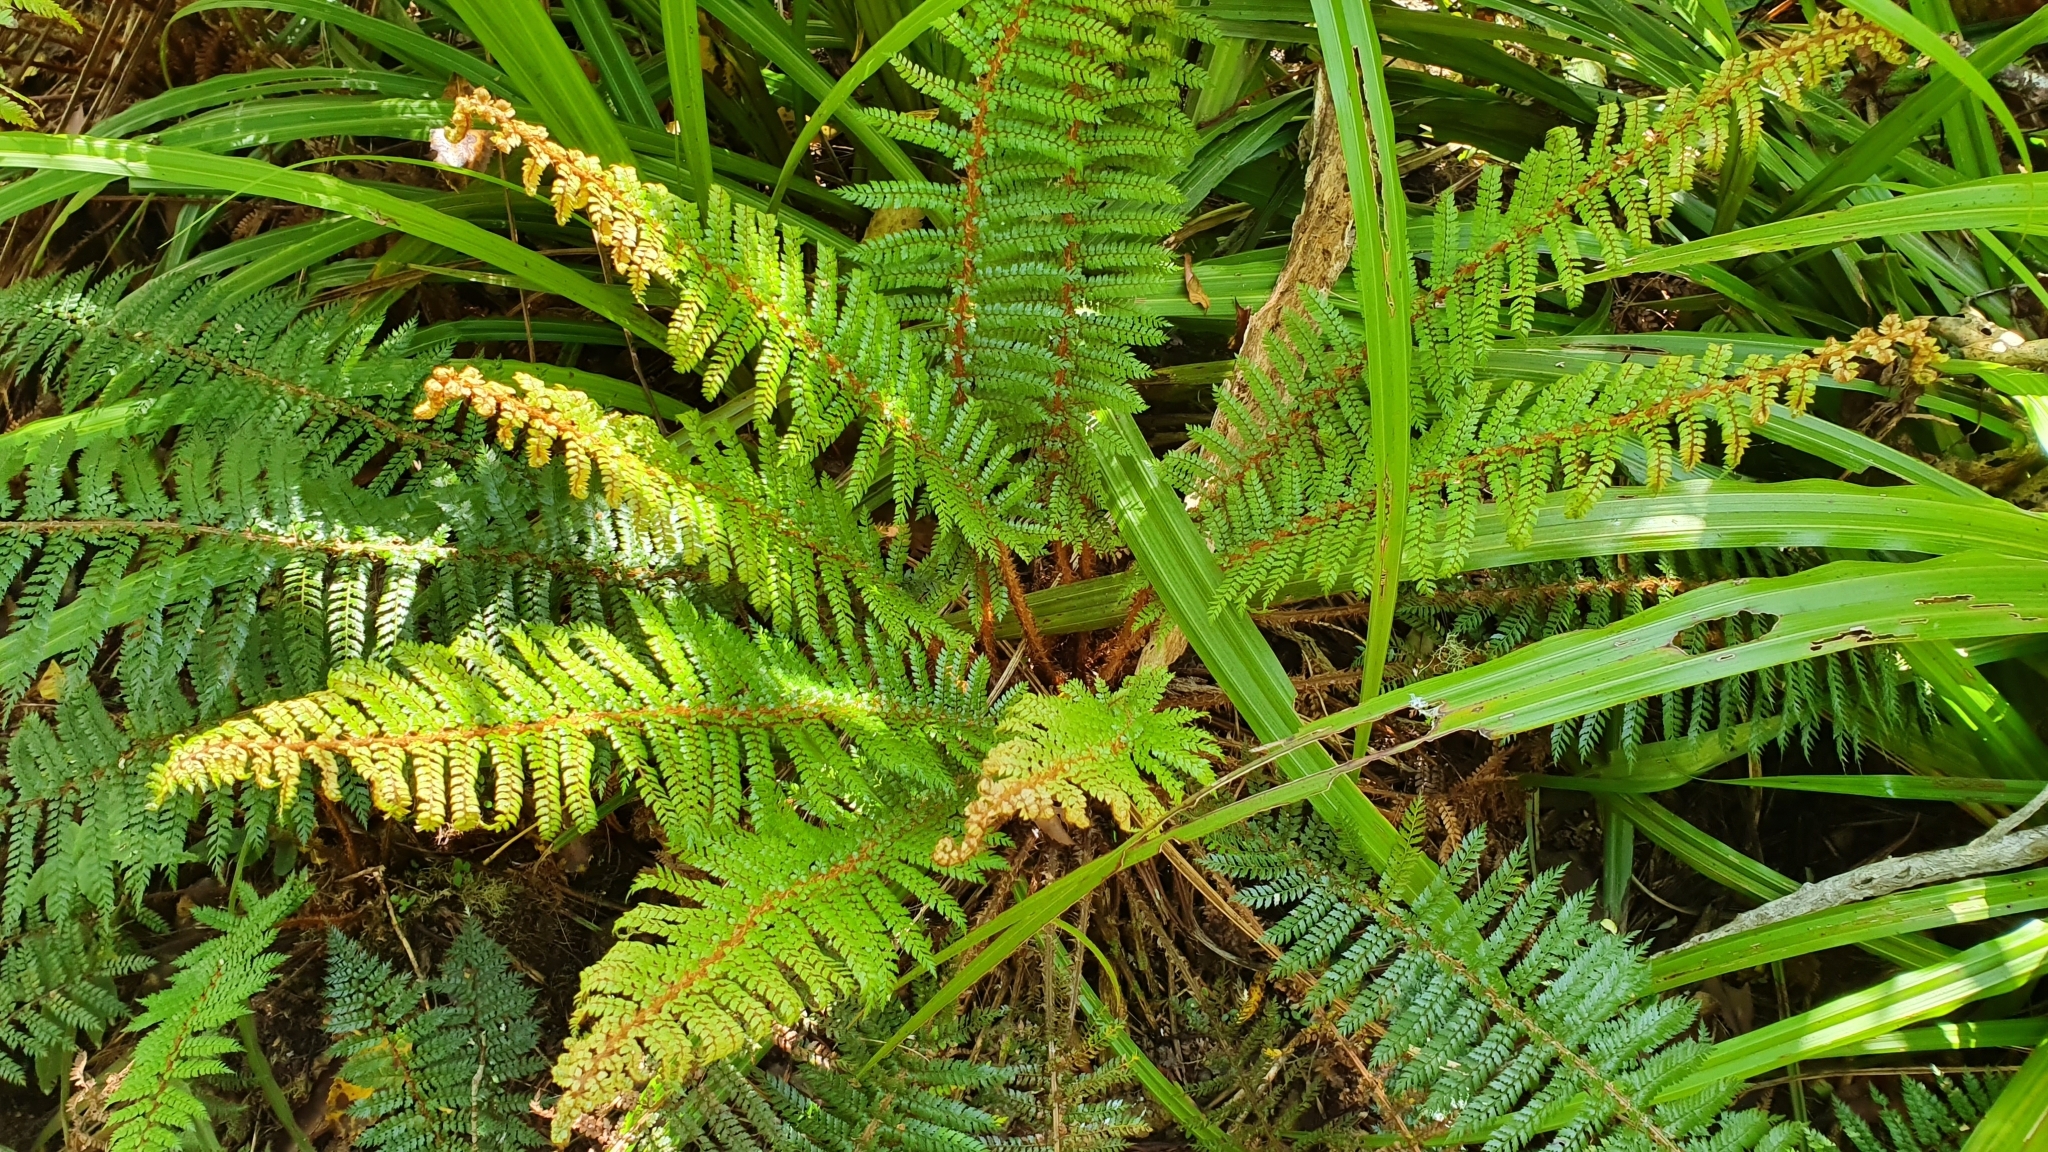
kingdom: Plantae
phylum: Tracheophyta
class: Polypodiopsida
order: Polypodiales
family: Dryopteridaceae
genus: Polystichum
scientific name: Polystichum vestitum
